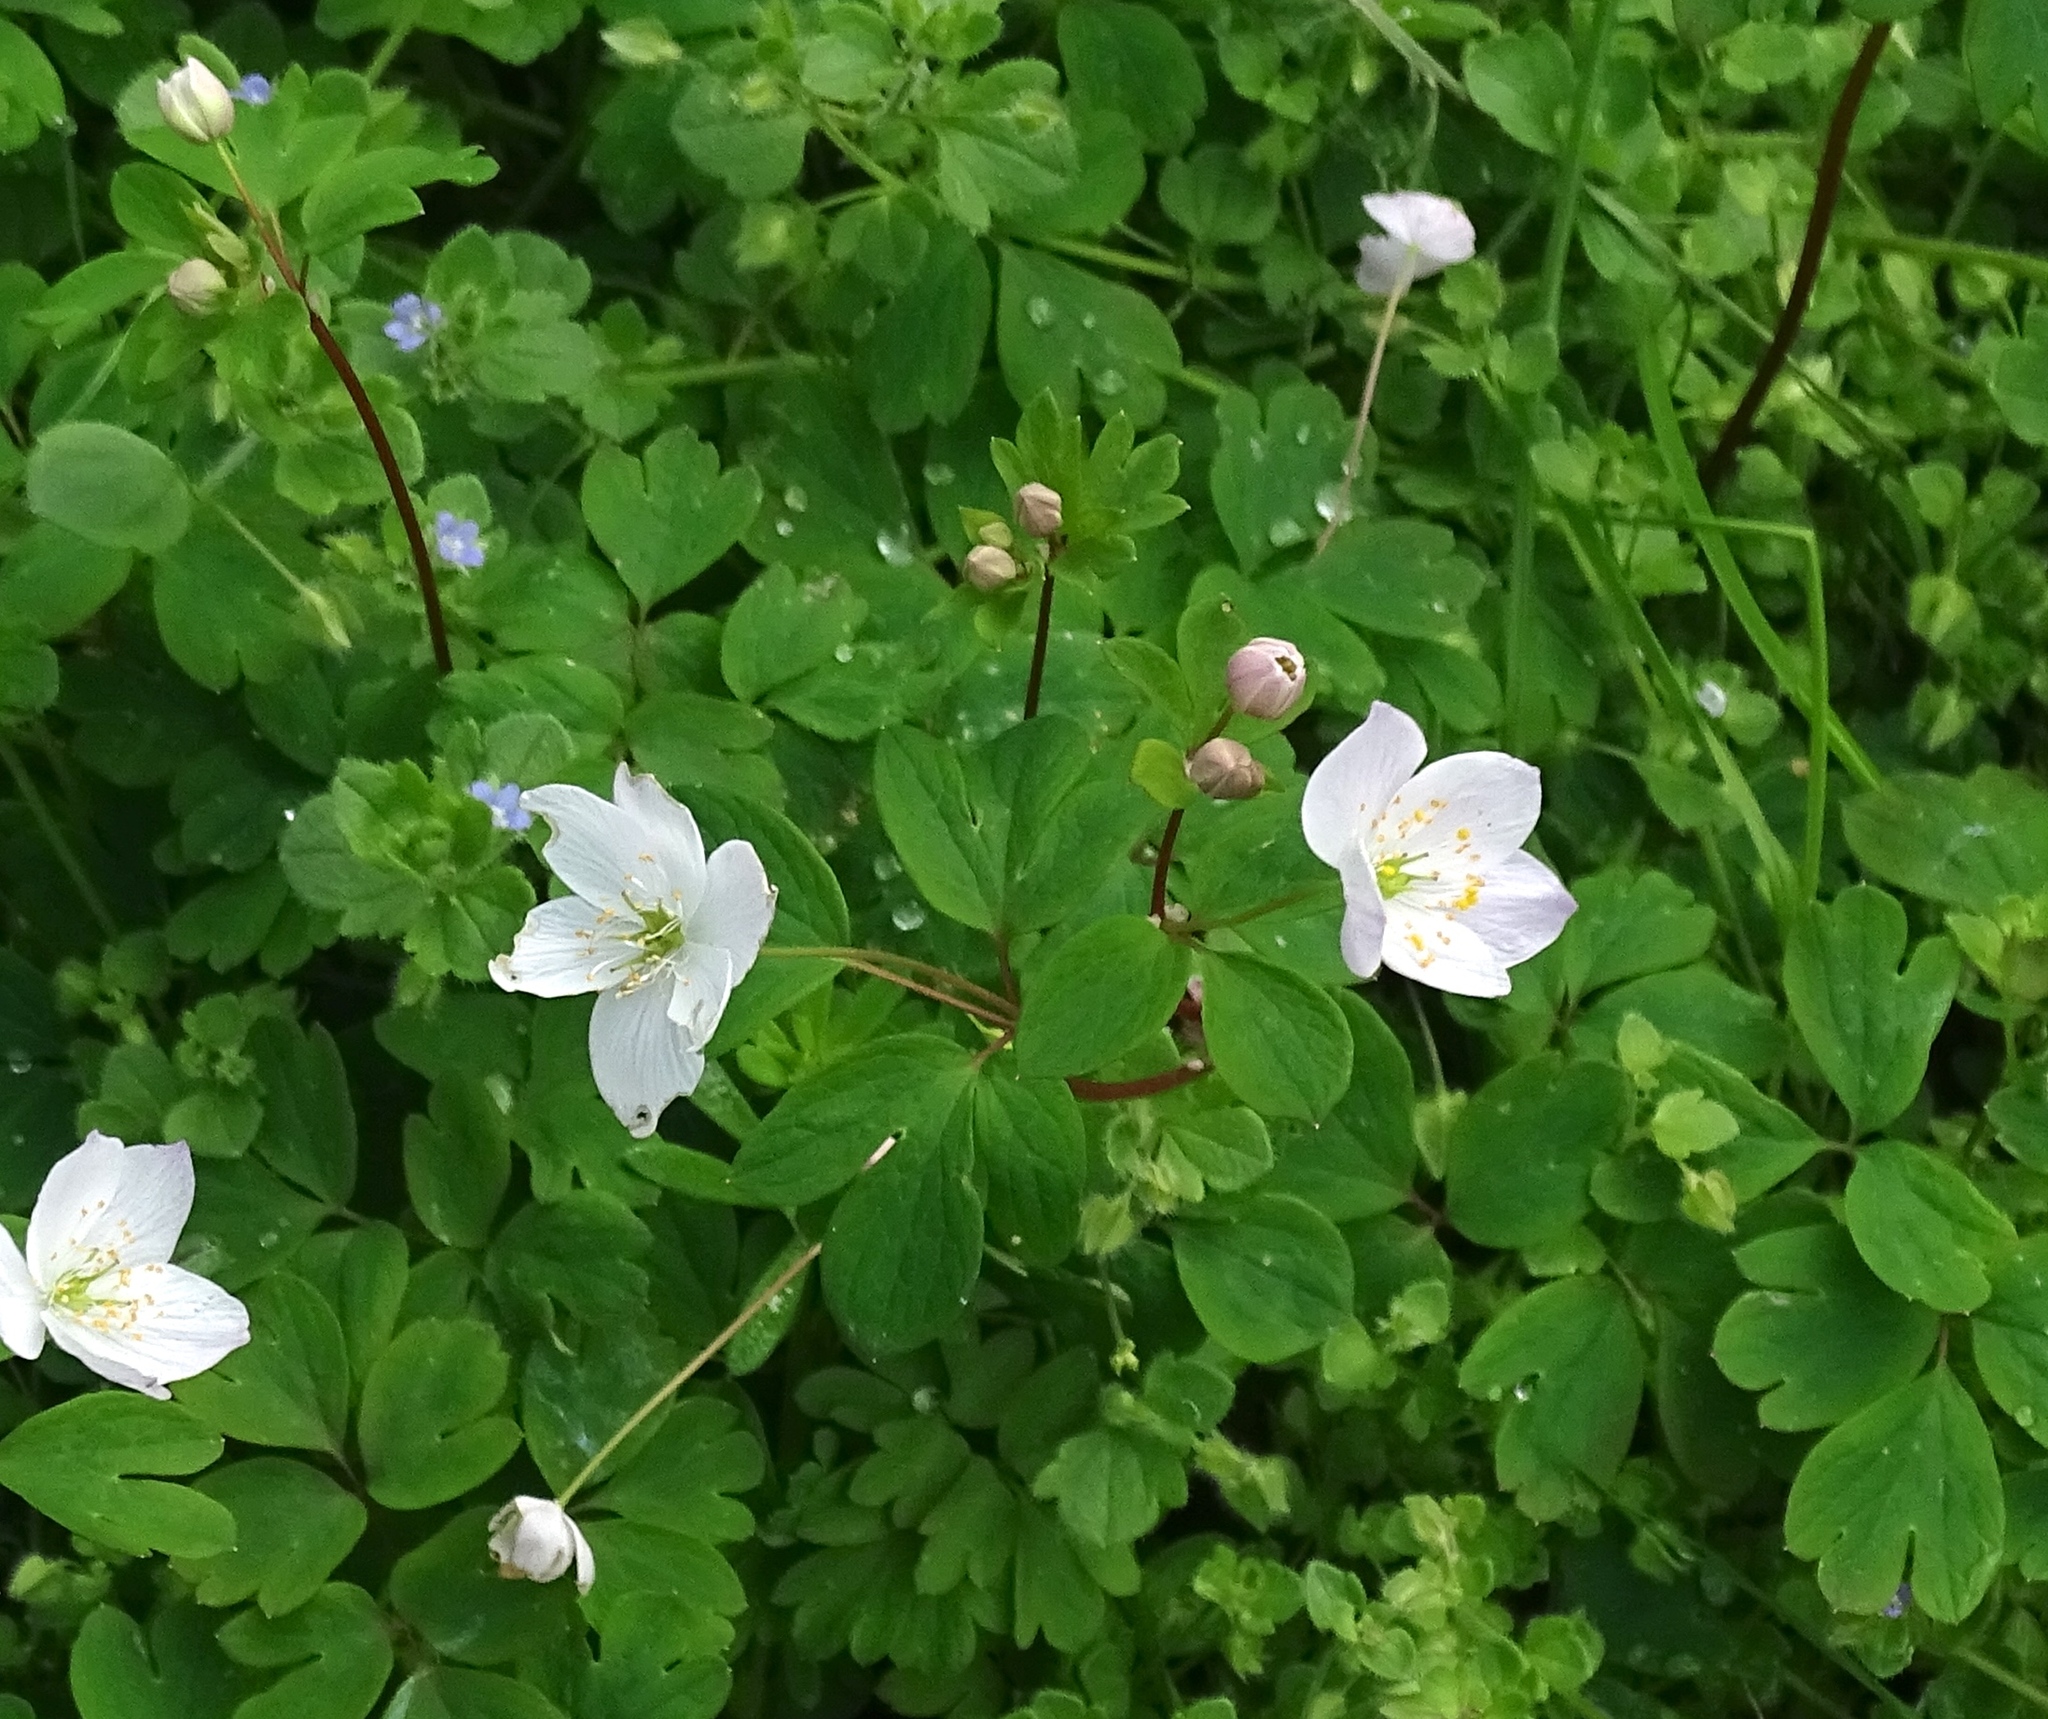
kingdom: Plantae
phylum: Tracheophyta
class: Magnoliopsida
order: Ranunculales
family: Ranunculaceae
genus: Enemion
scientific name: Enemion biternatum
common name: Eastern false rue-anemone
